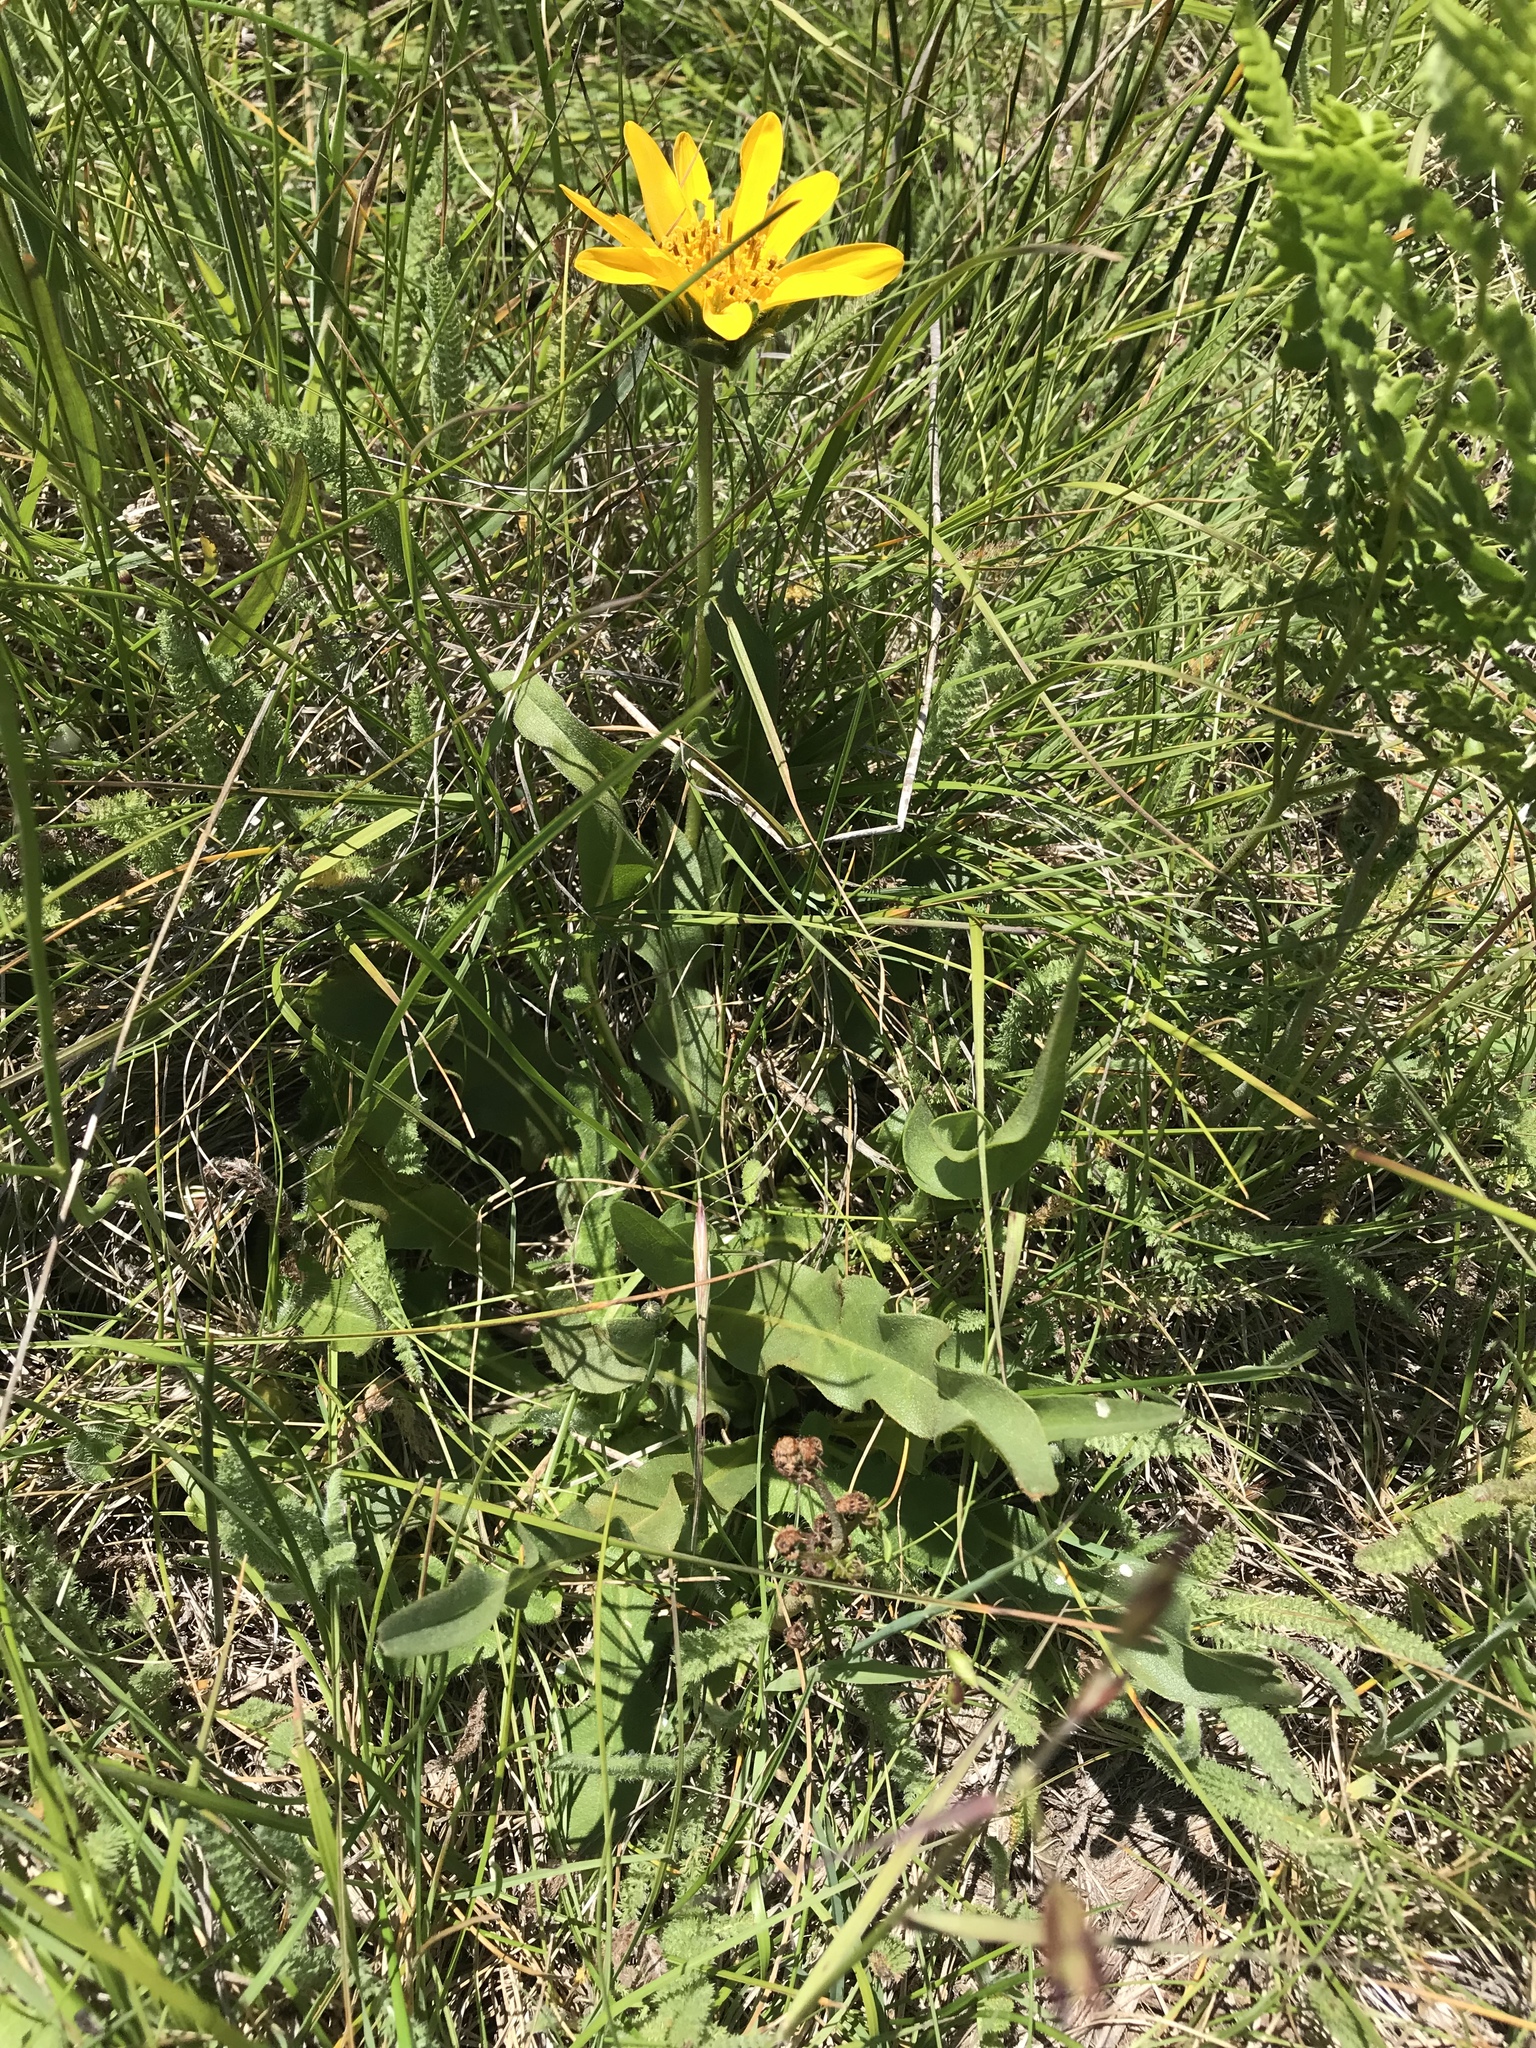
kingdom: Plantae
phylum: Tracheophyta
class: Magnoliopsida
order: Asterales
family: Asteraceae
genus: Wyethia
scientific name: Wyethia angustifolia
